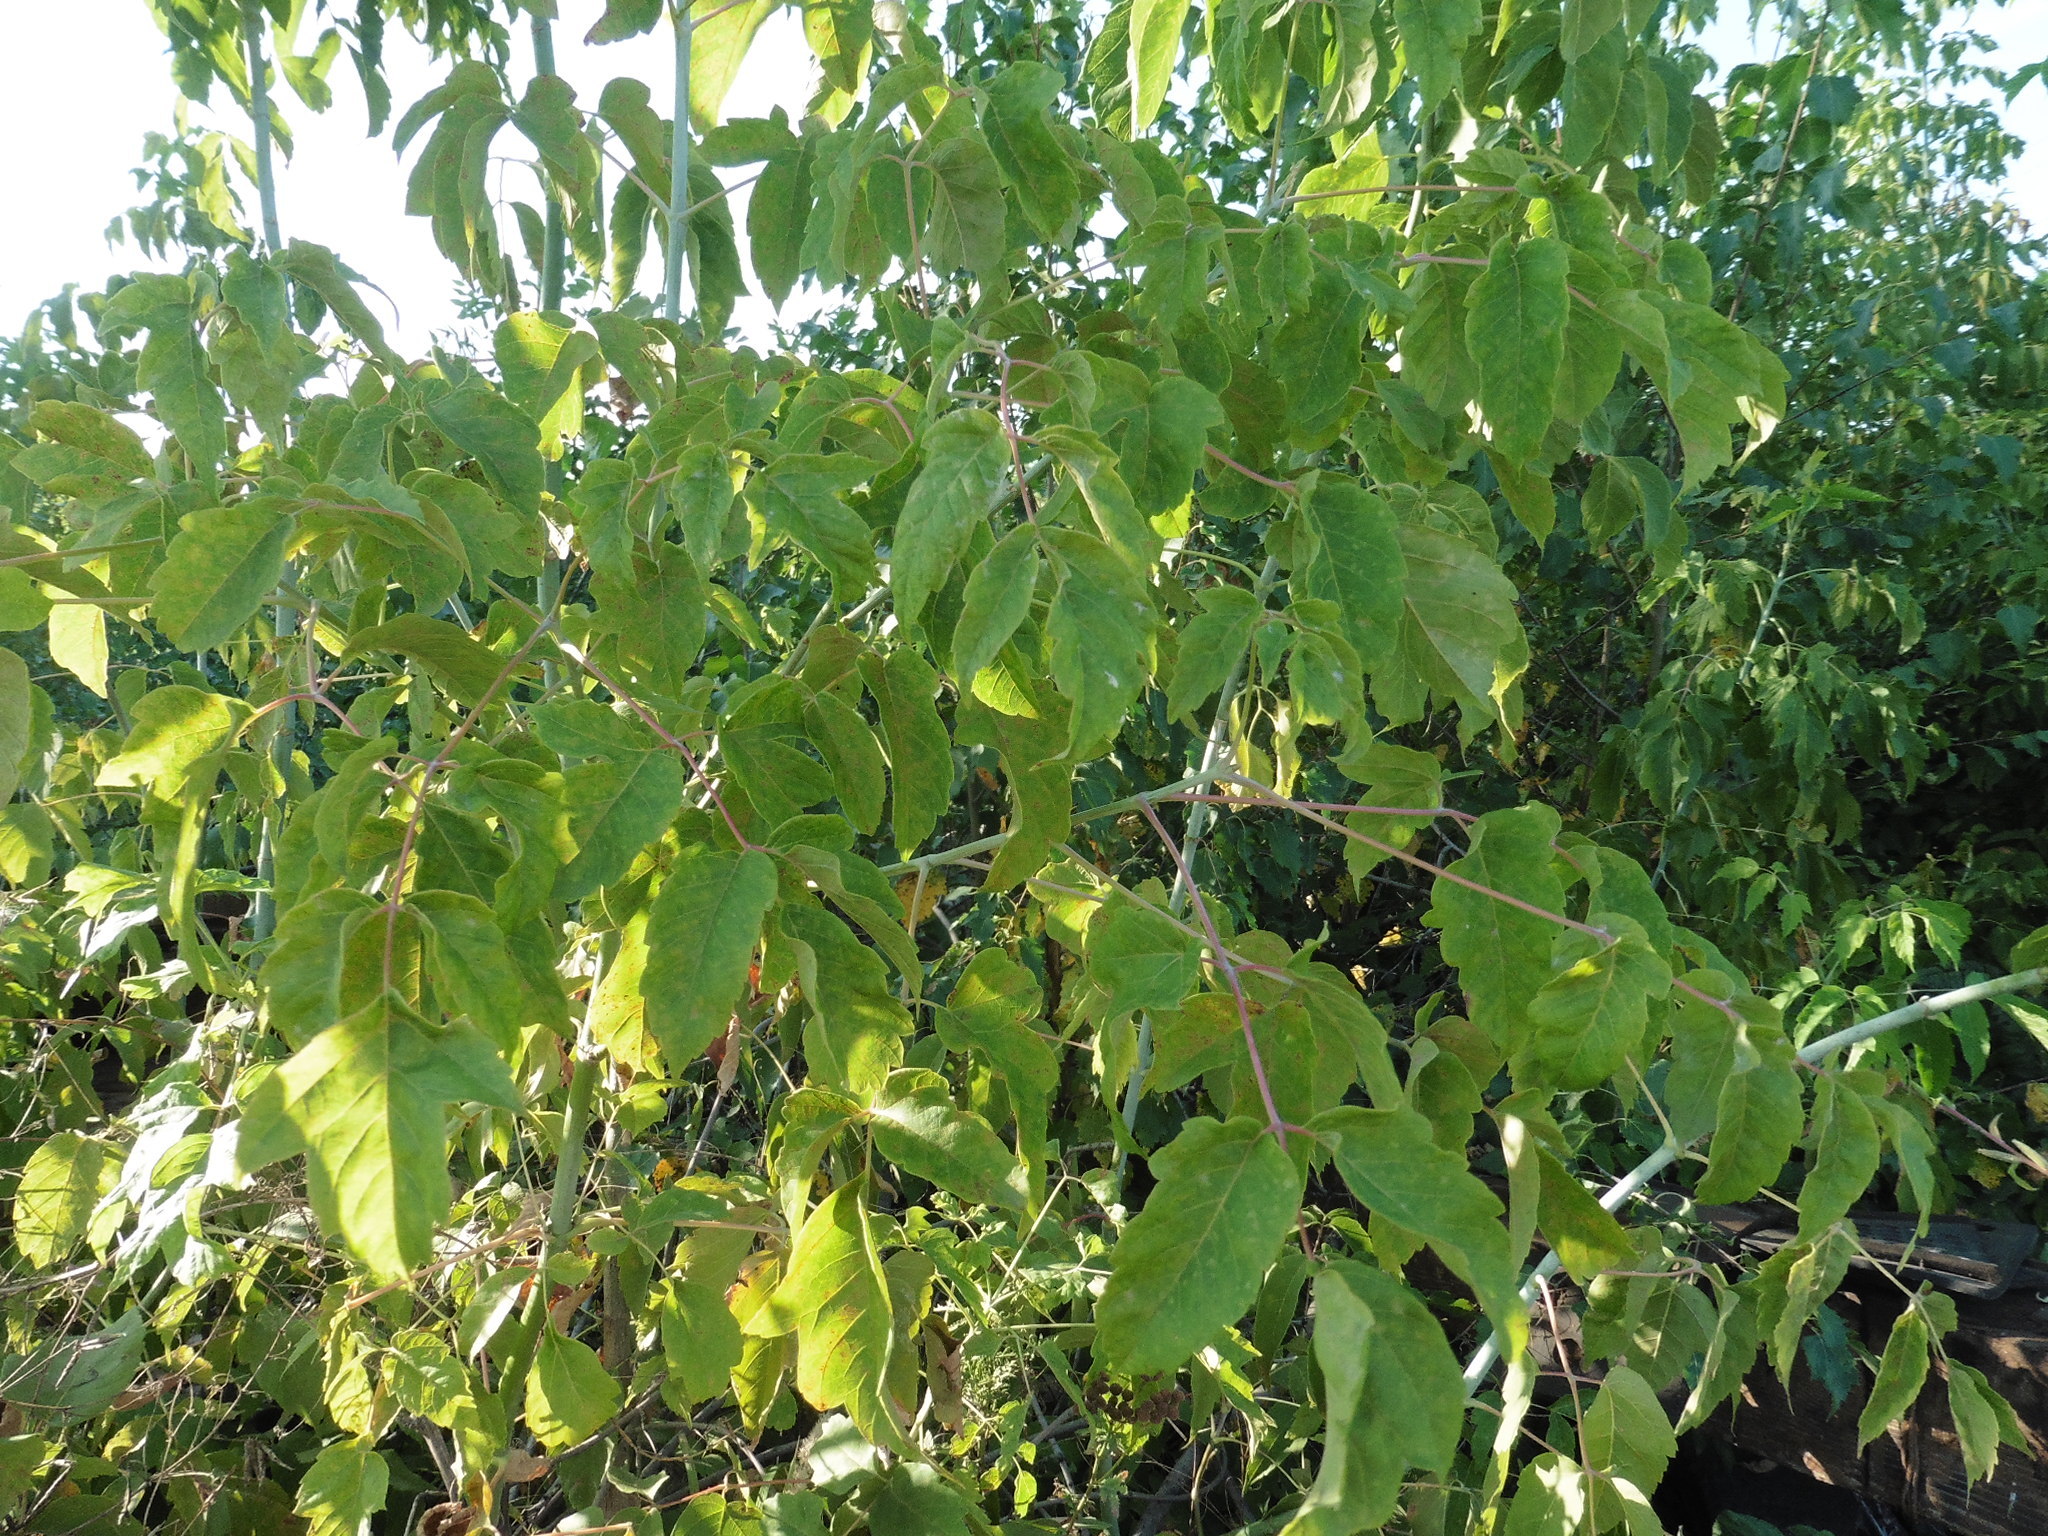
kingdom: Plantae
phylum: Tracheophyta
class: Magnoliopsida
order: Sapindales
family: Sapindaceae
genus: Acer
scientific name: Acer negundo
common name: Ashleaf maple
